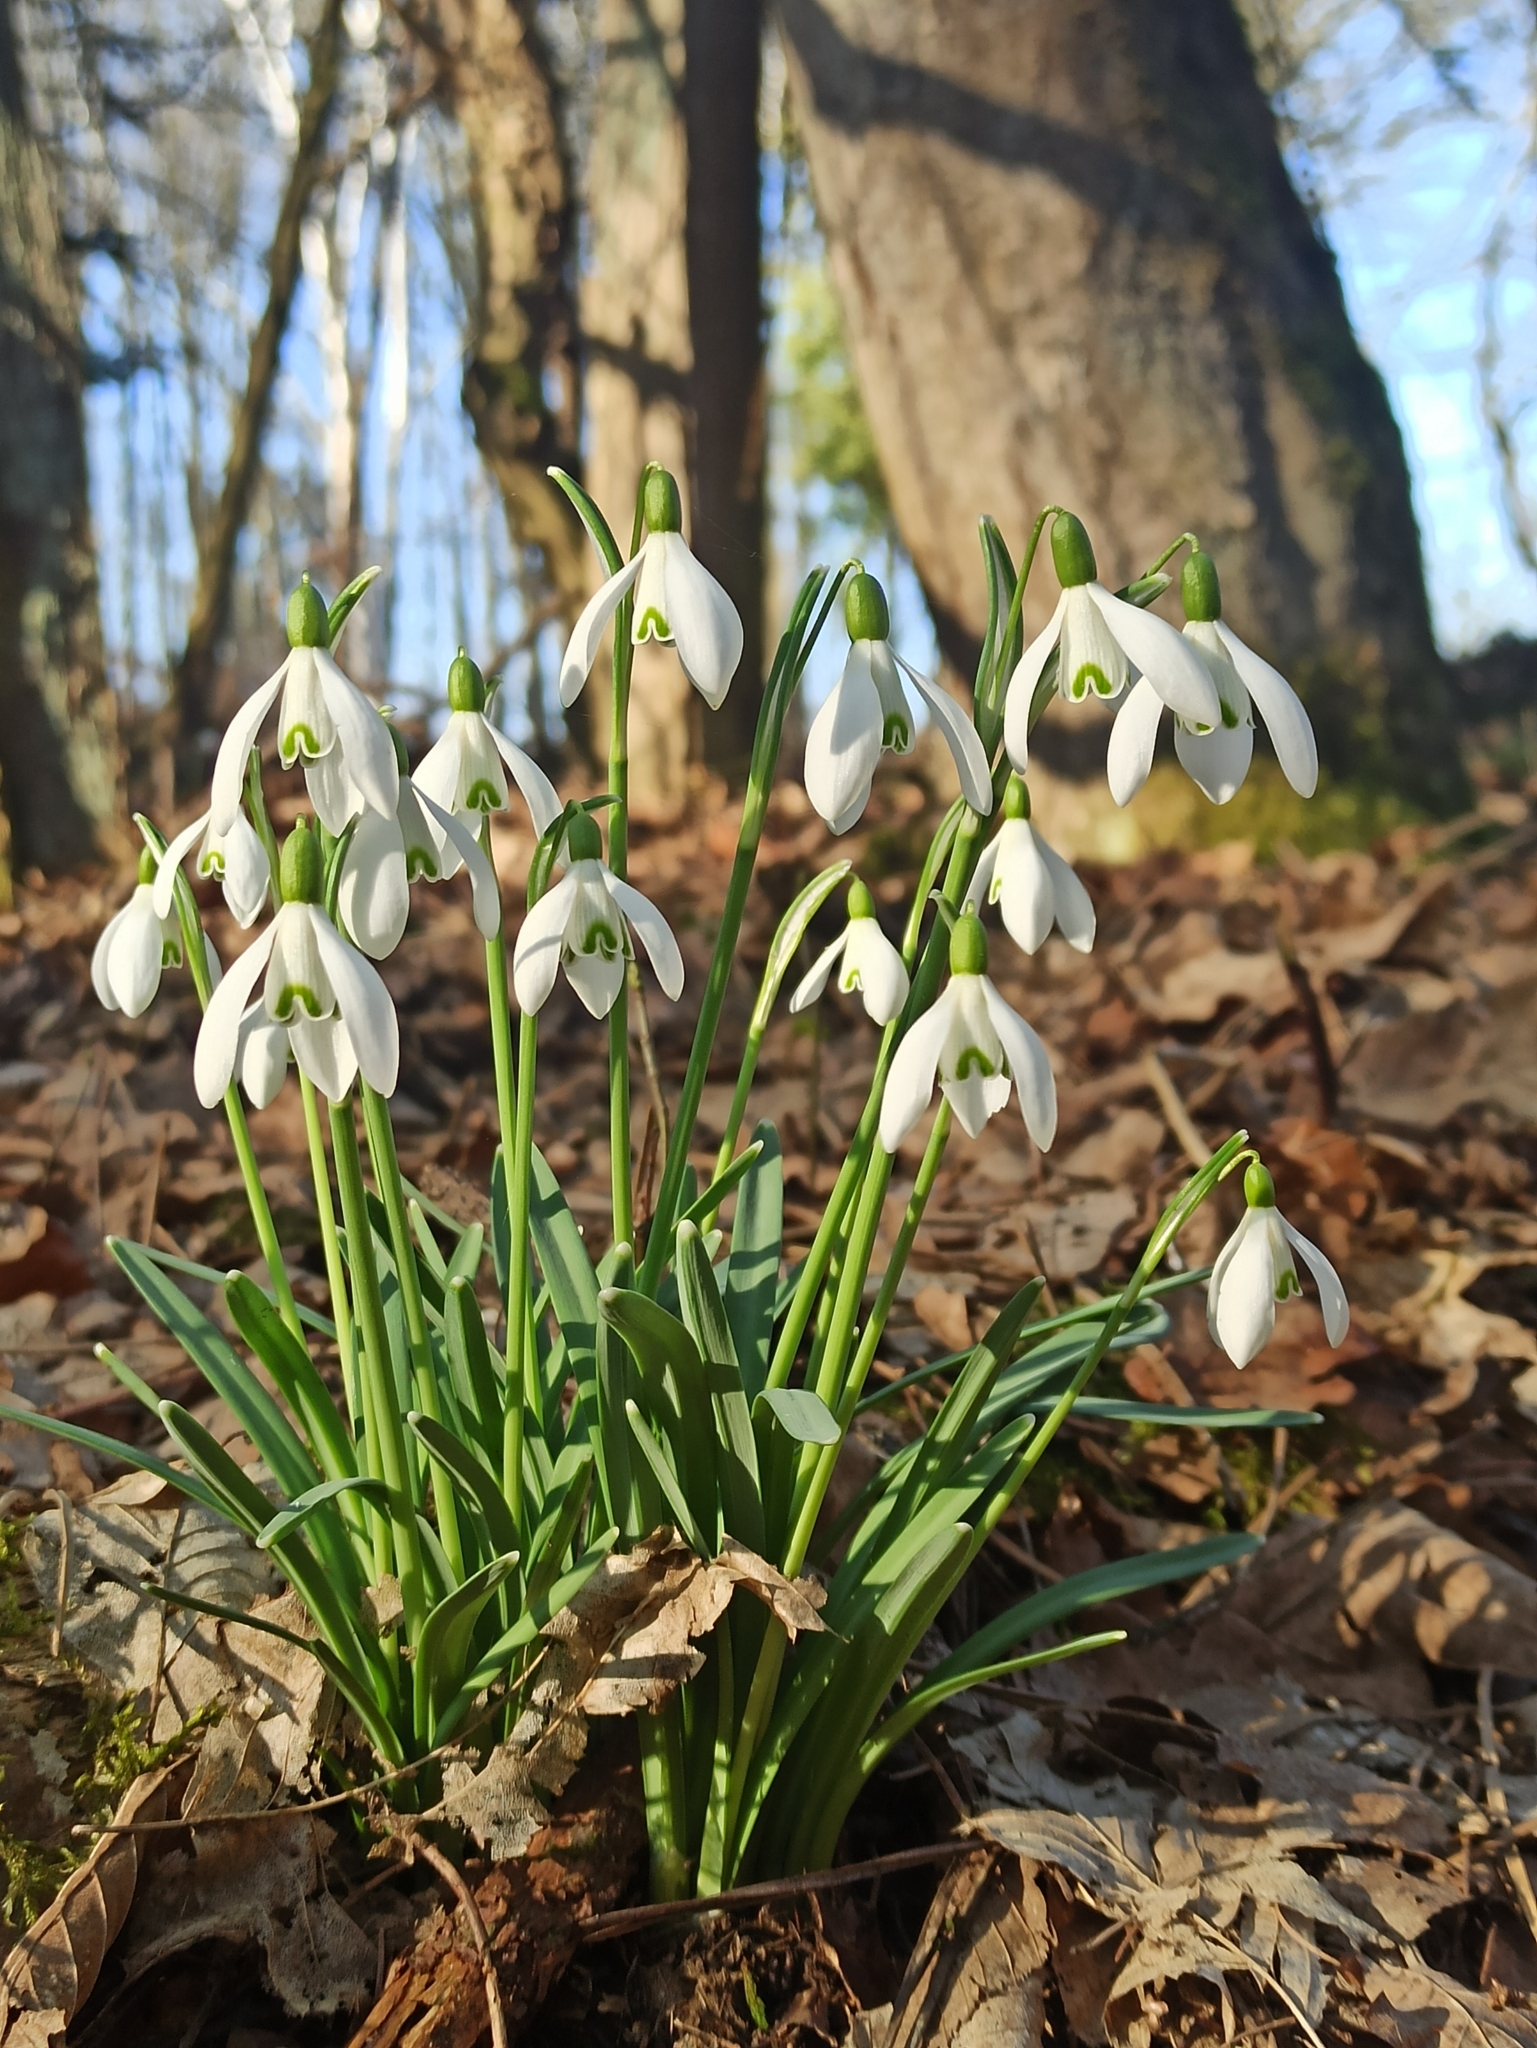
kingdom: Plantae
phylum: Tracheophyta
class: Liliopsida
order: Asparagales
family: Amaryllidaceae
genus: Galanthus
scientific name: Galanthus nivalis
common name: Snowdrop
